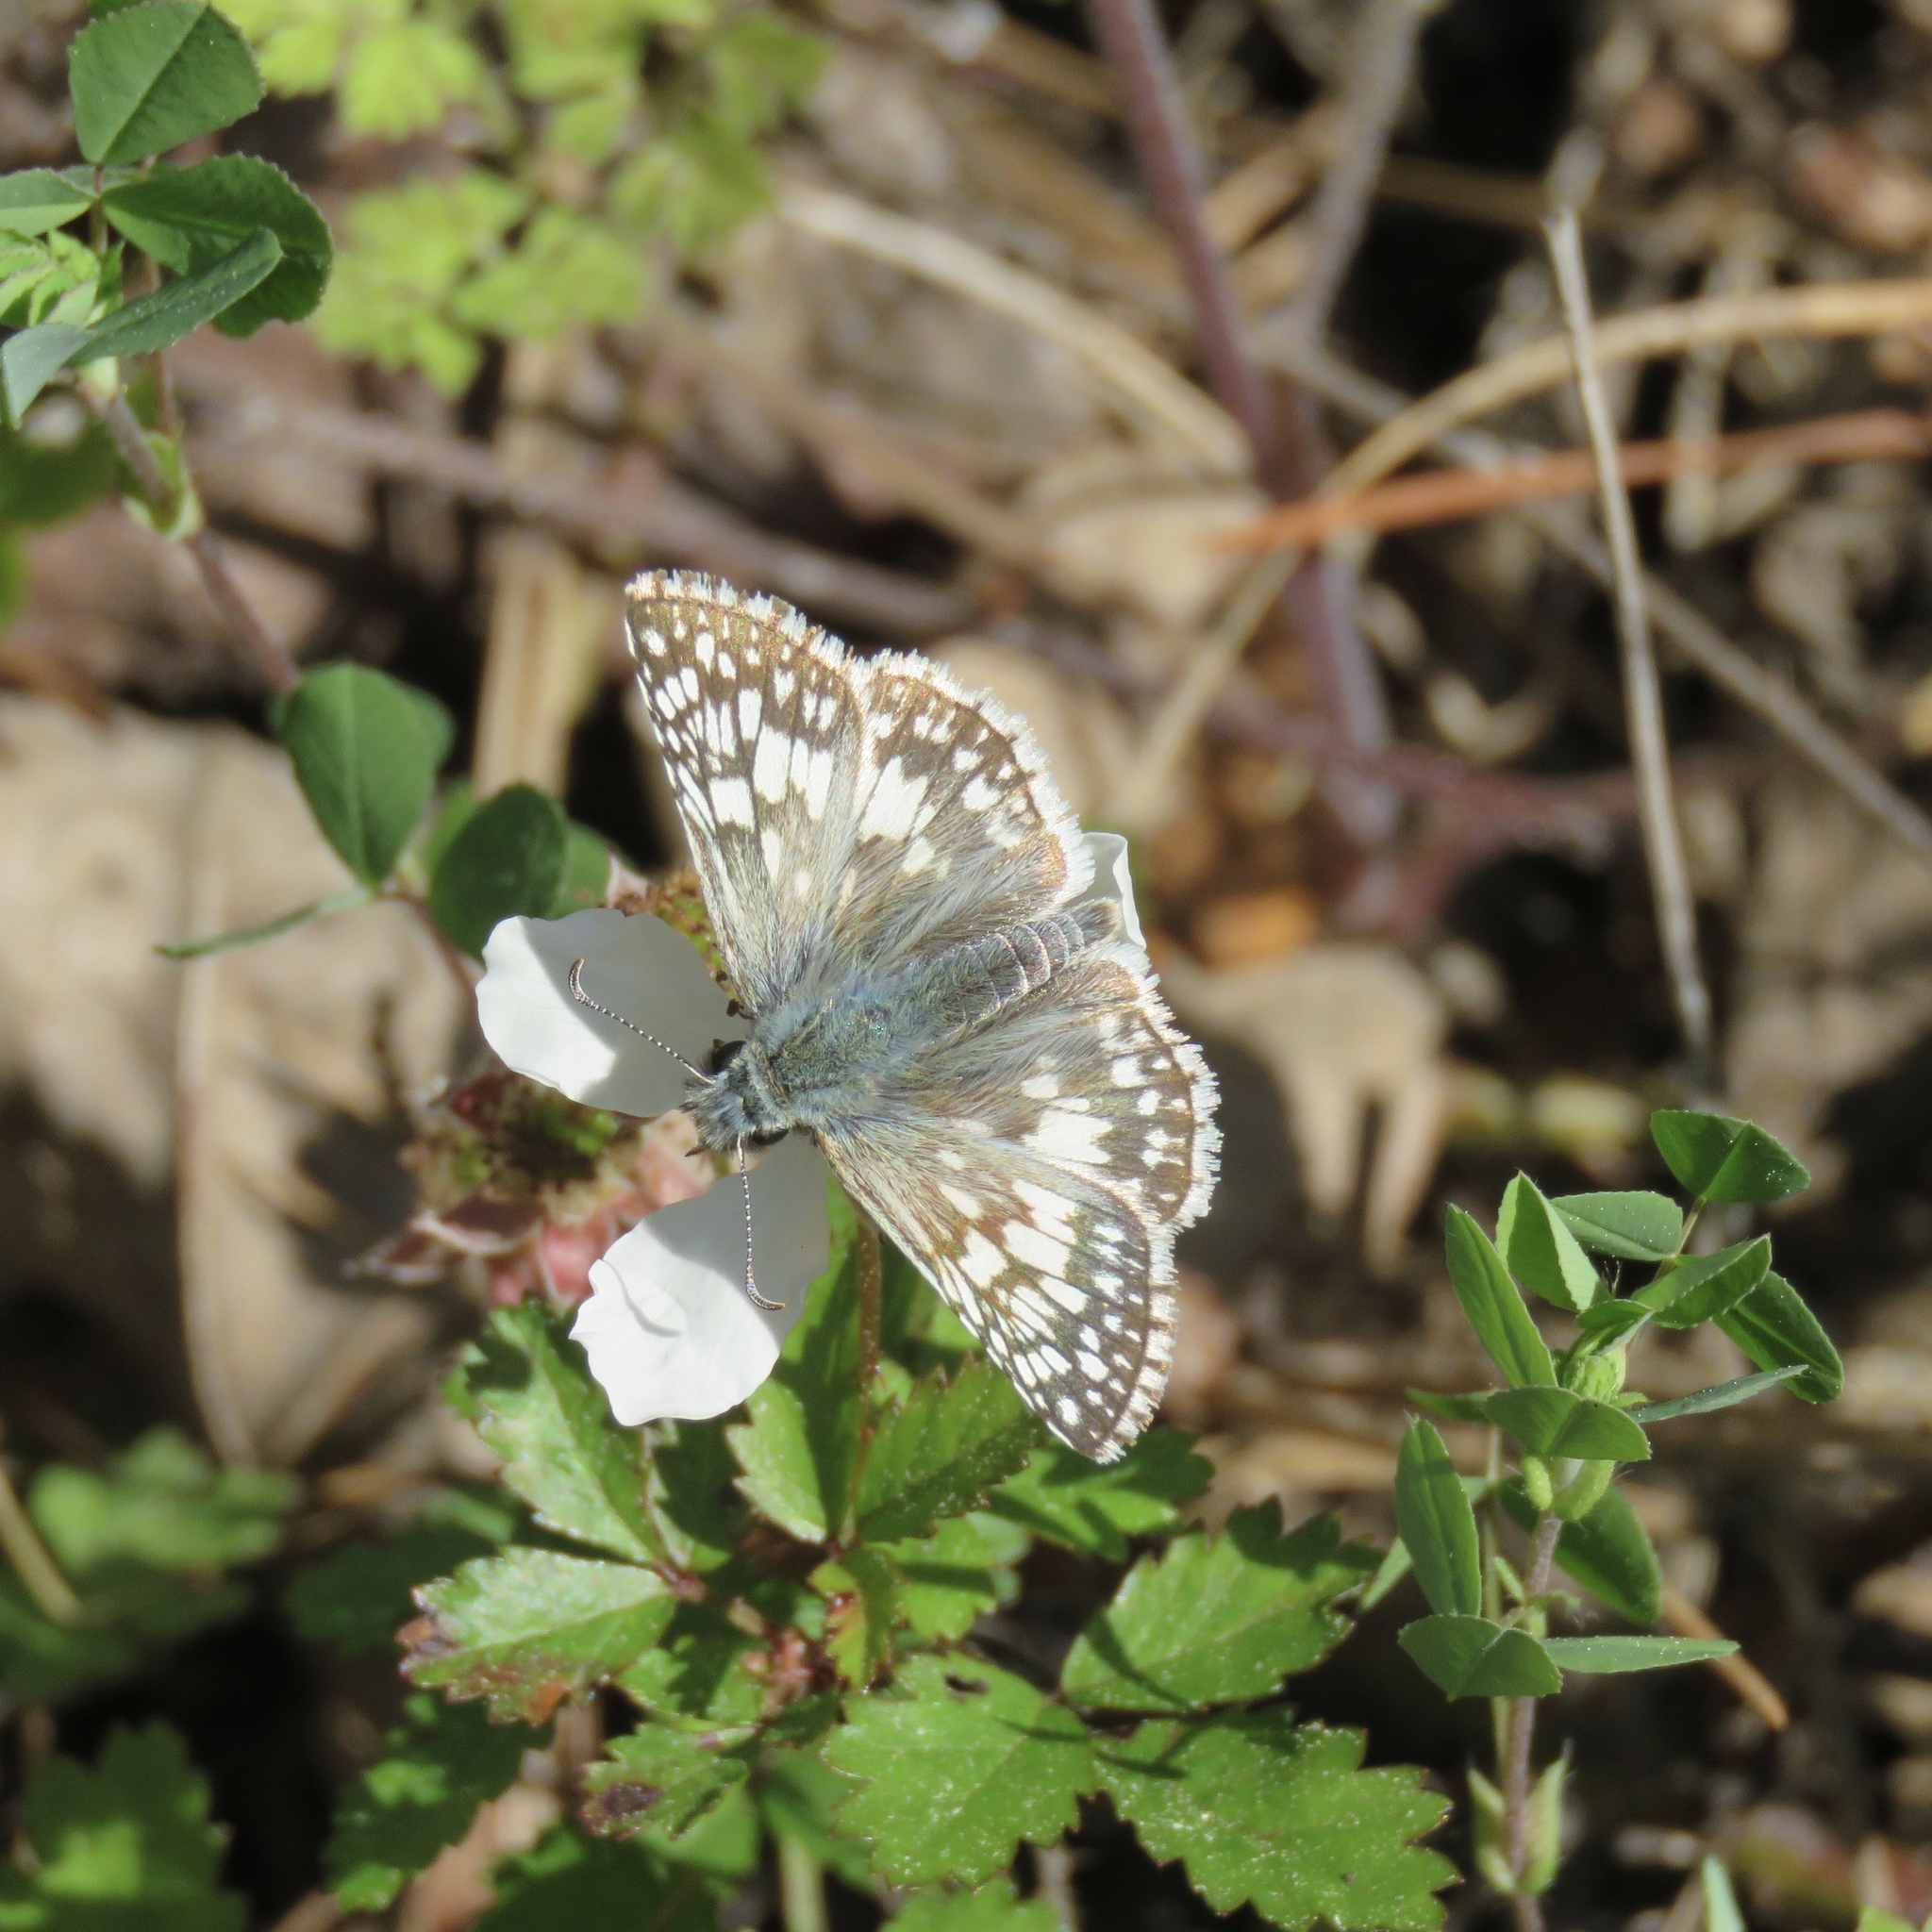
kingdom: Animalia
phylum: Arthropoda
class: Insecta
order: Lepidoptera
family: Hesperiidae
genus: Burnsius
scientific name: Burnsius
